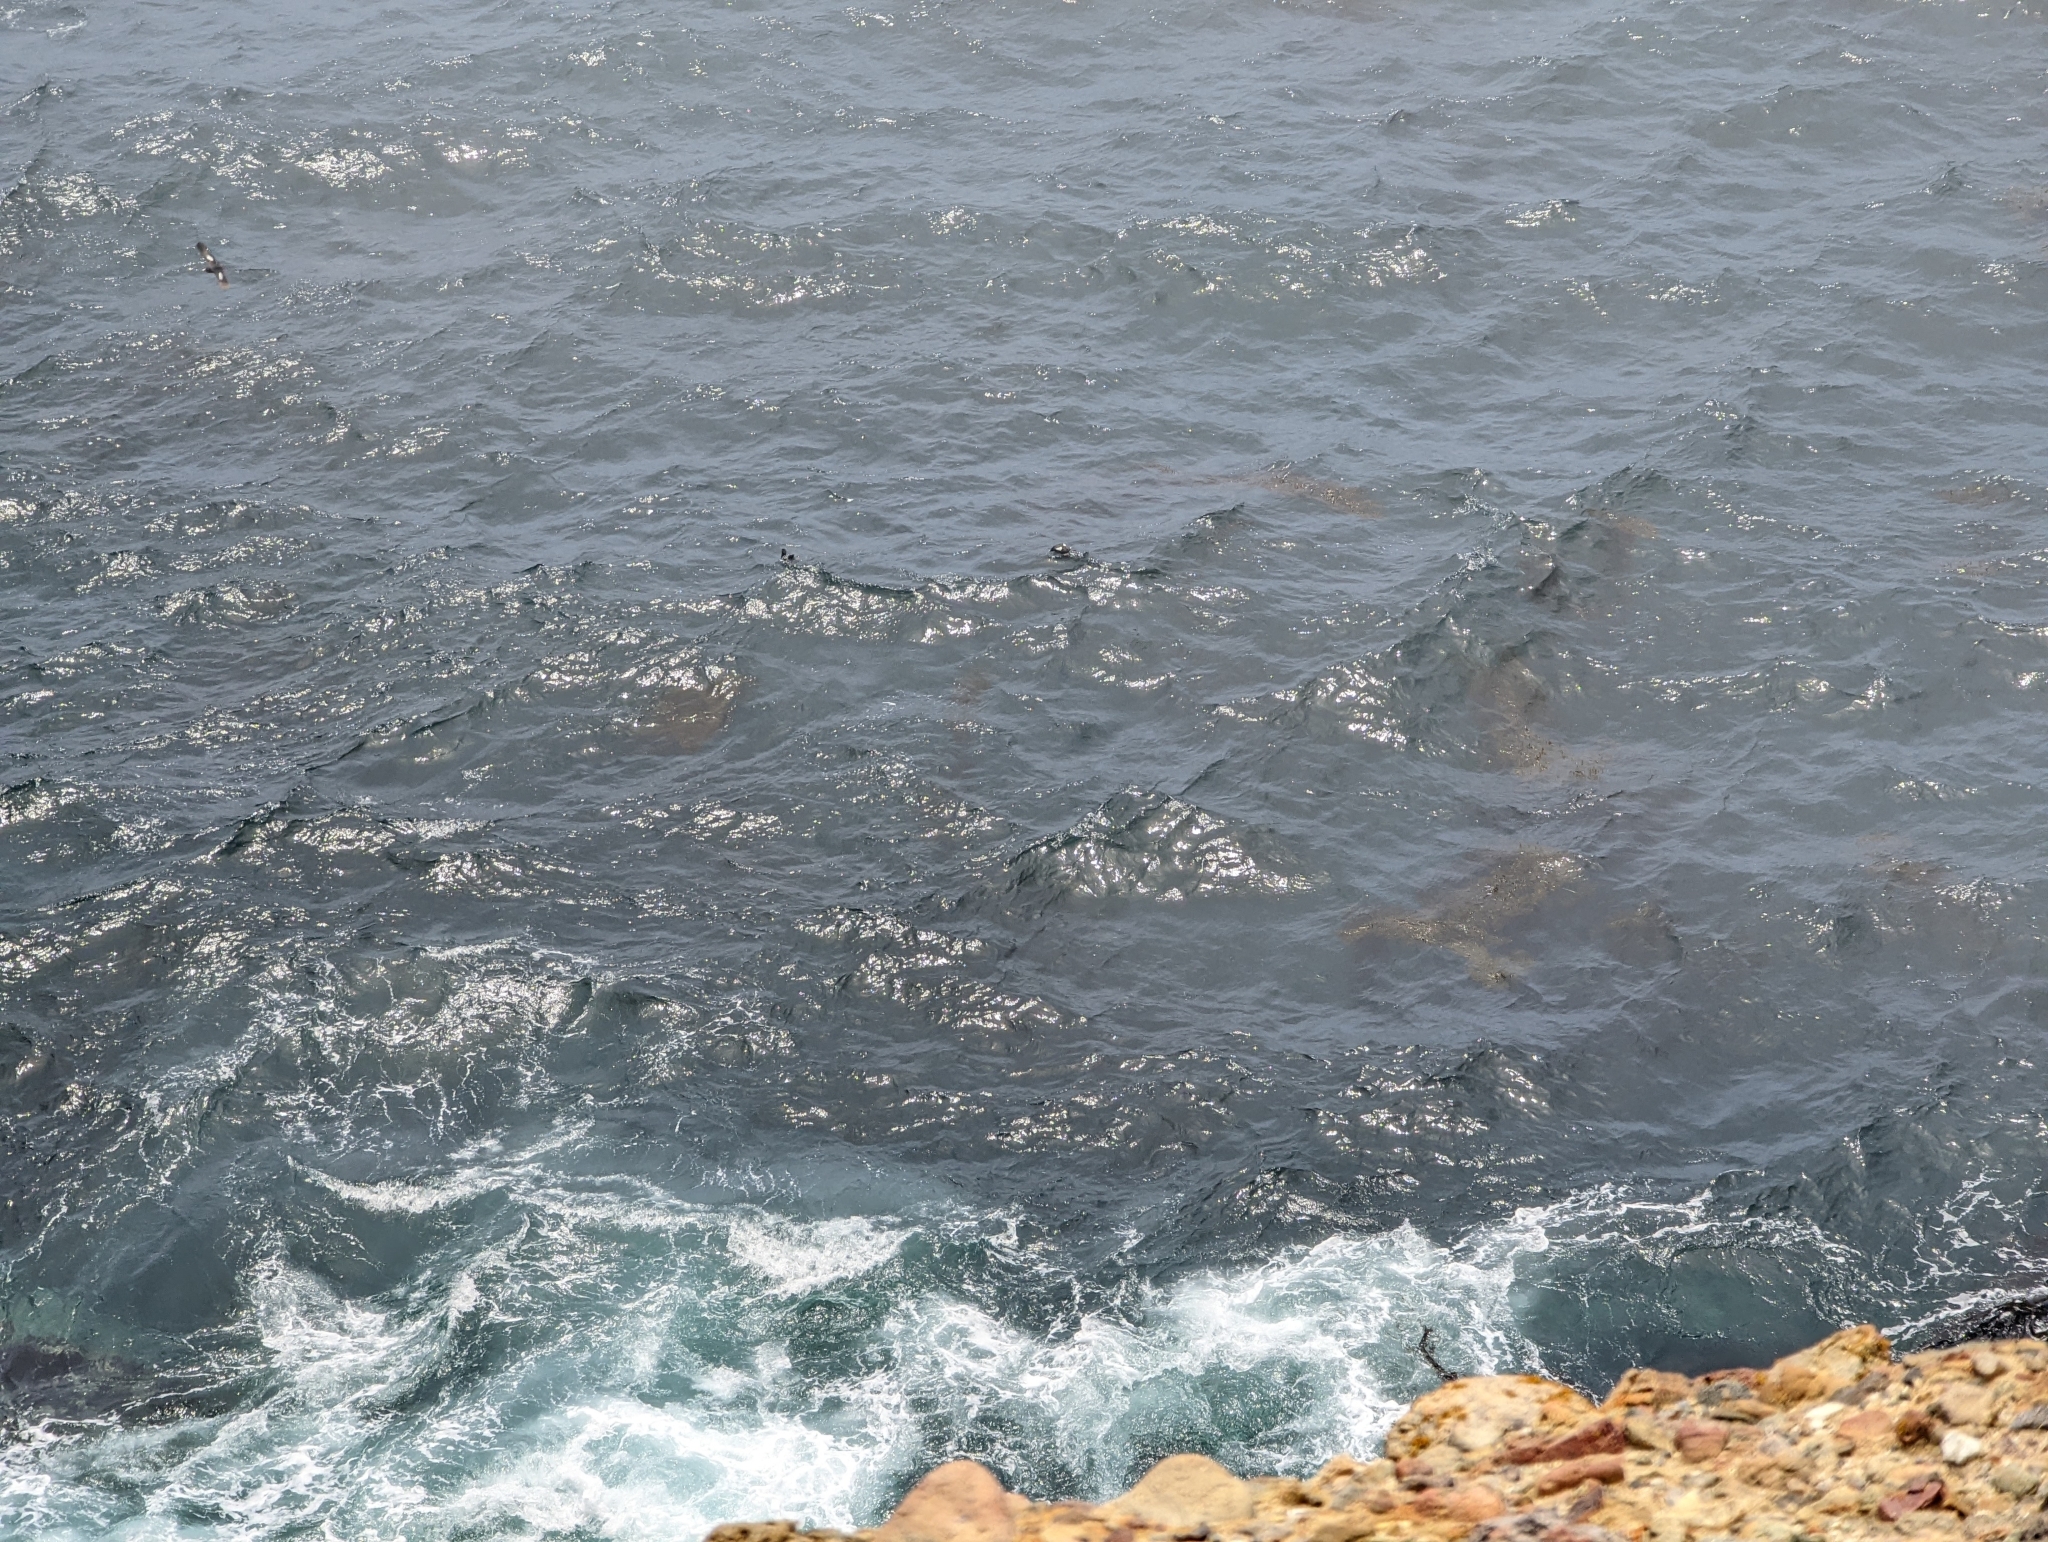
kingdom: Animalia
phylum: Chordata
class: Aves
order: Charadriiformes
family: Alcidae
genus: Cepphus
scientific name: Cepphus columba
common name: Pigeon guillemot
